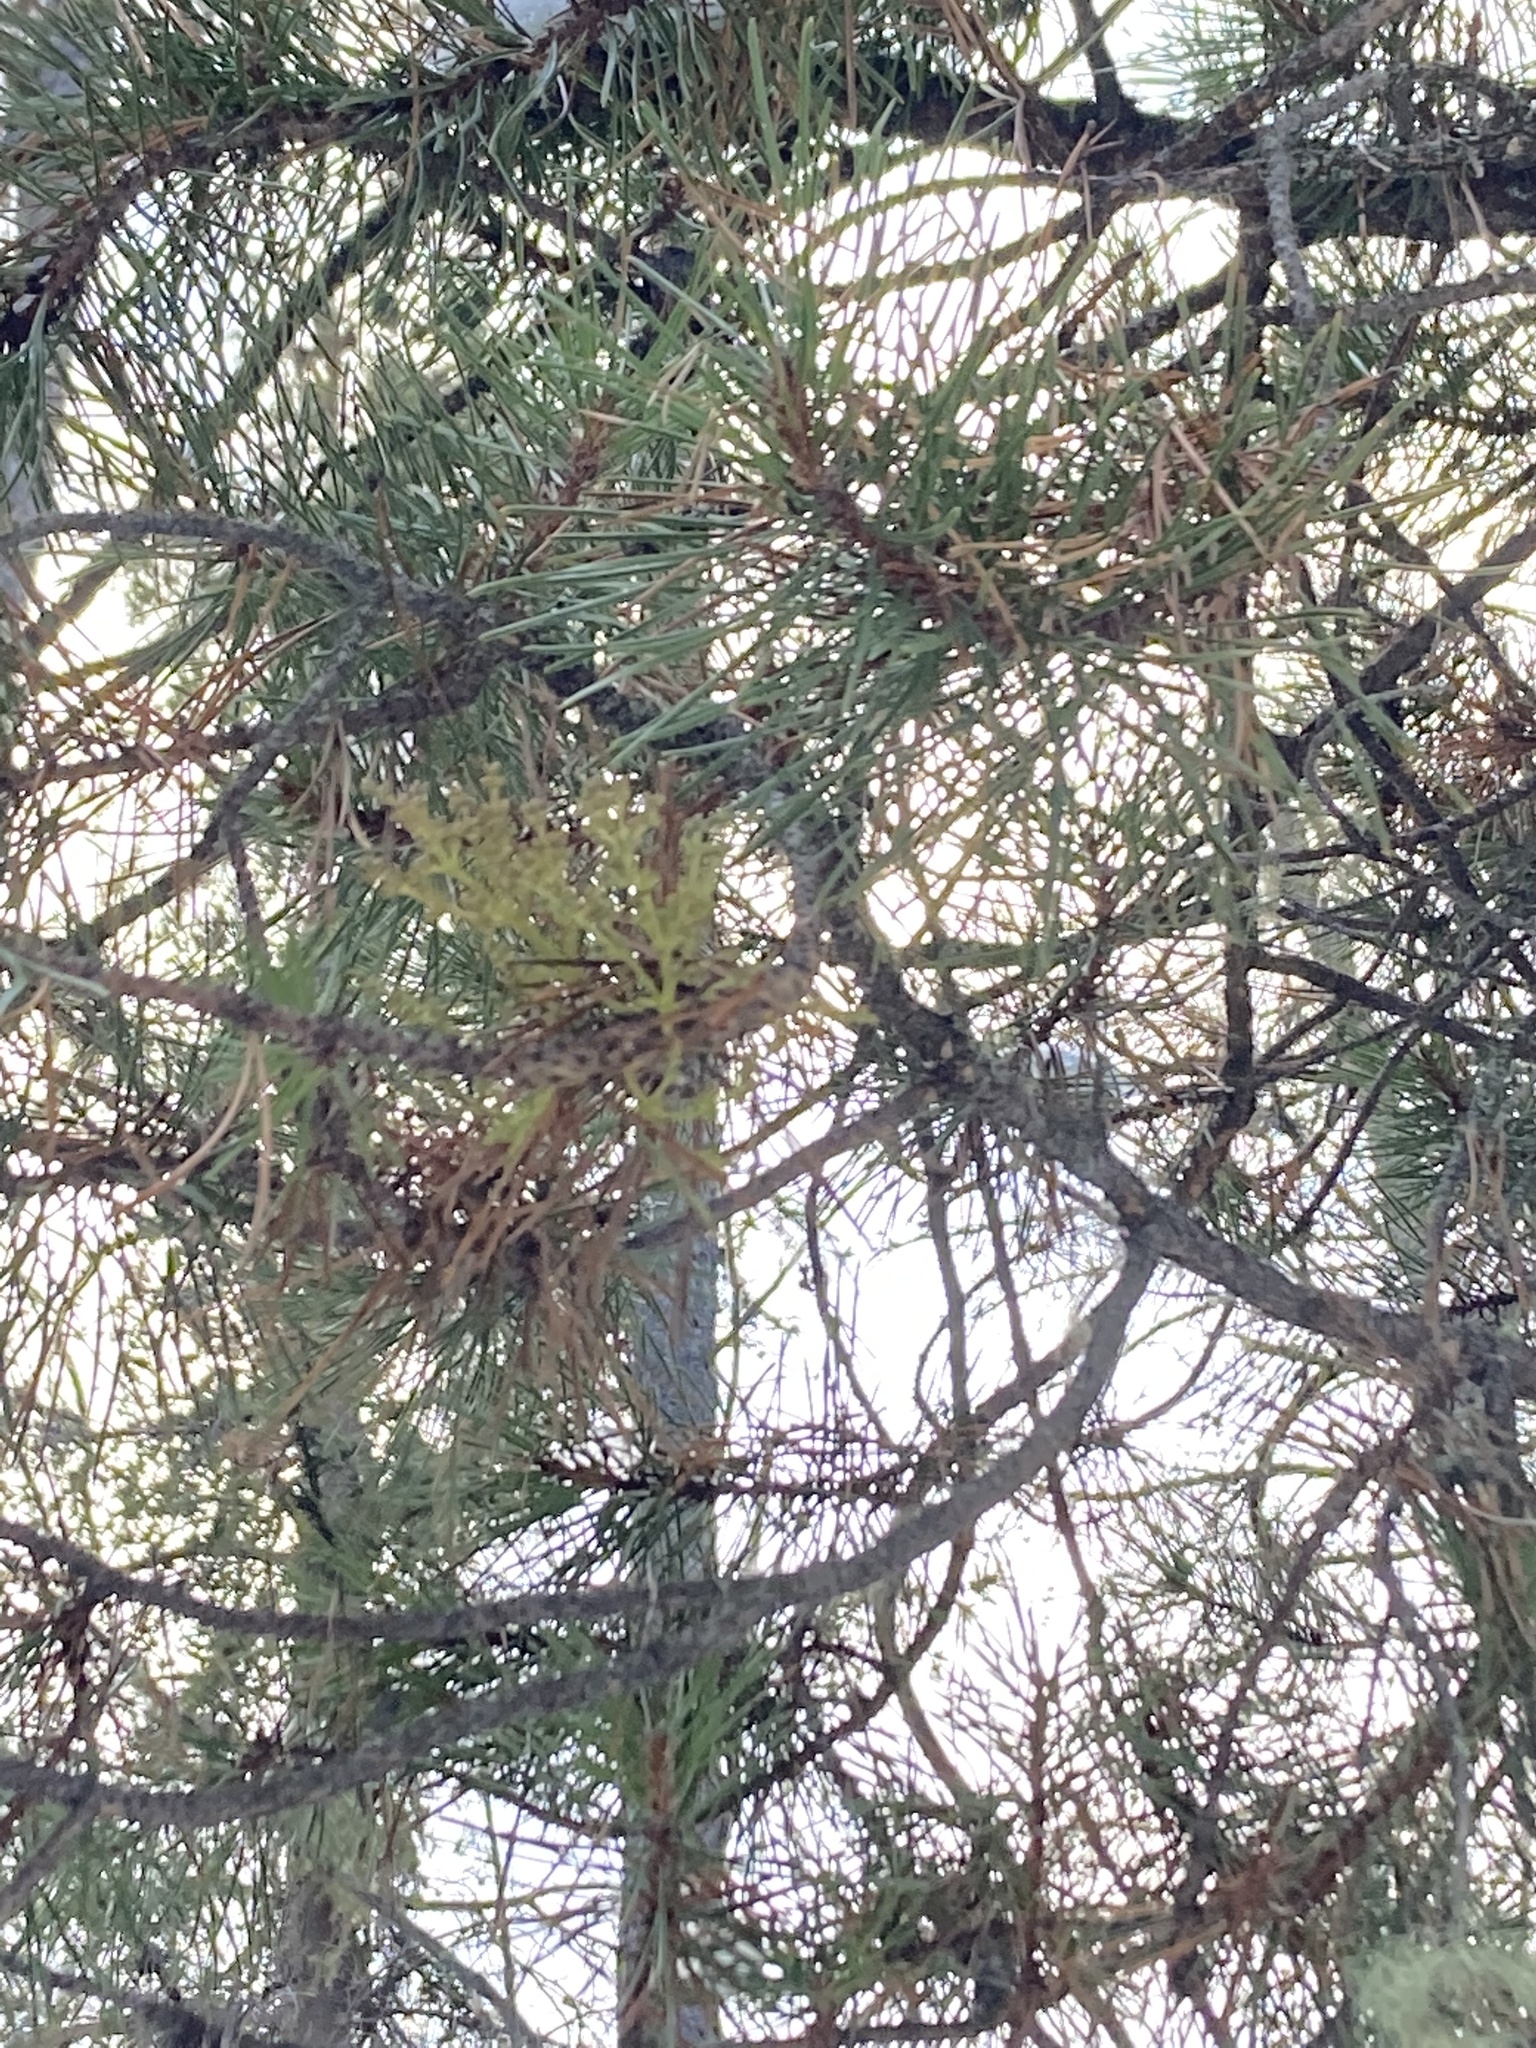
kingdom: Plantae
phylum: Tracheophyta
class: Magnoliopsida
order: Santalales
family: Viscaceae
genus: Arceuthobium
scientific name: Arceuthobium americanum
